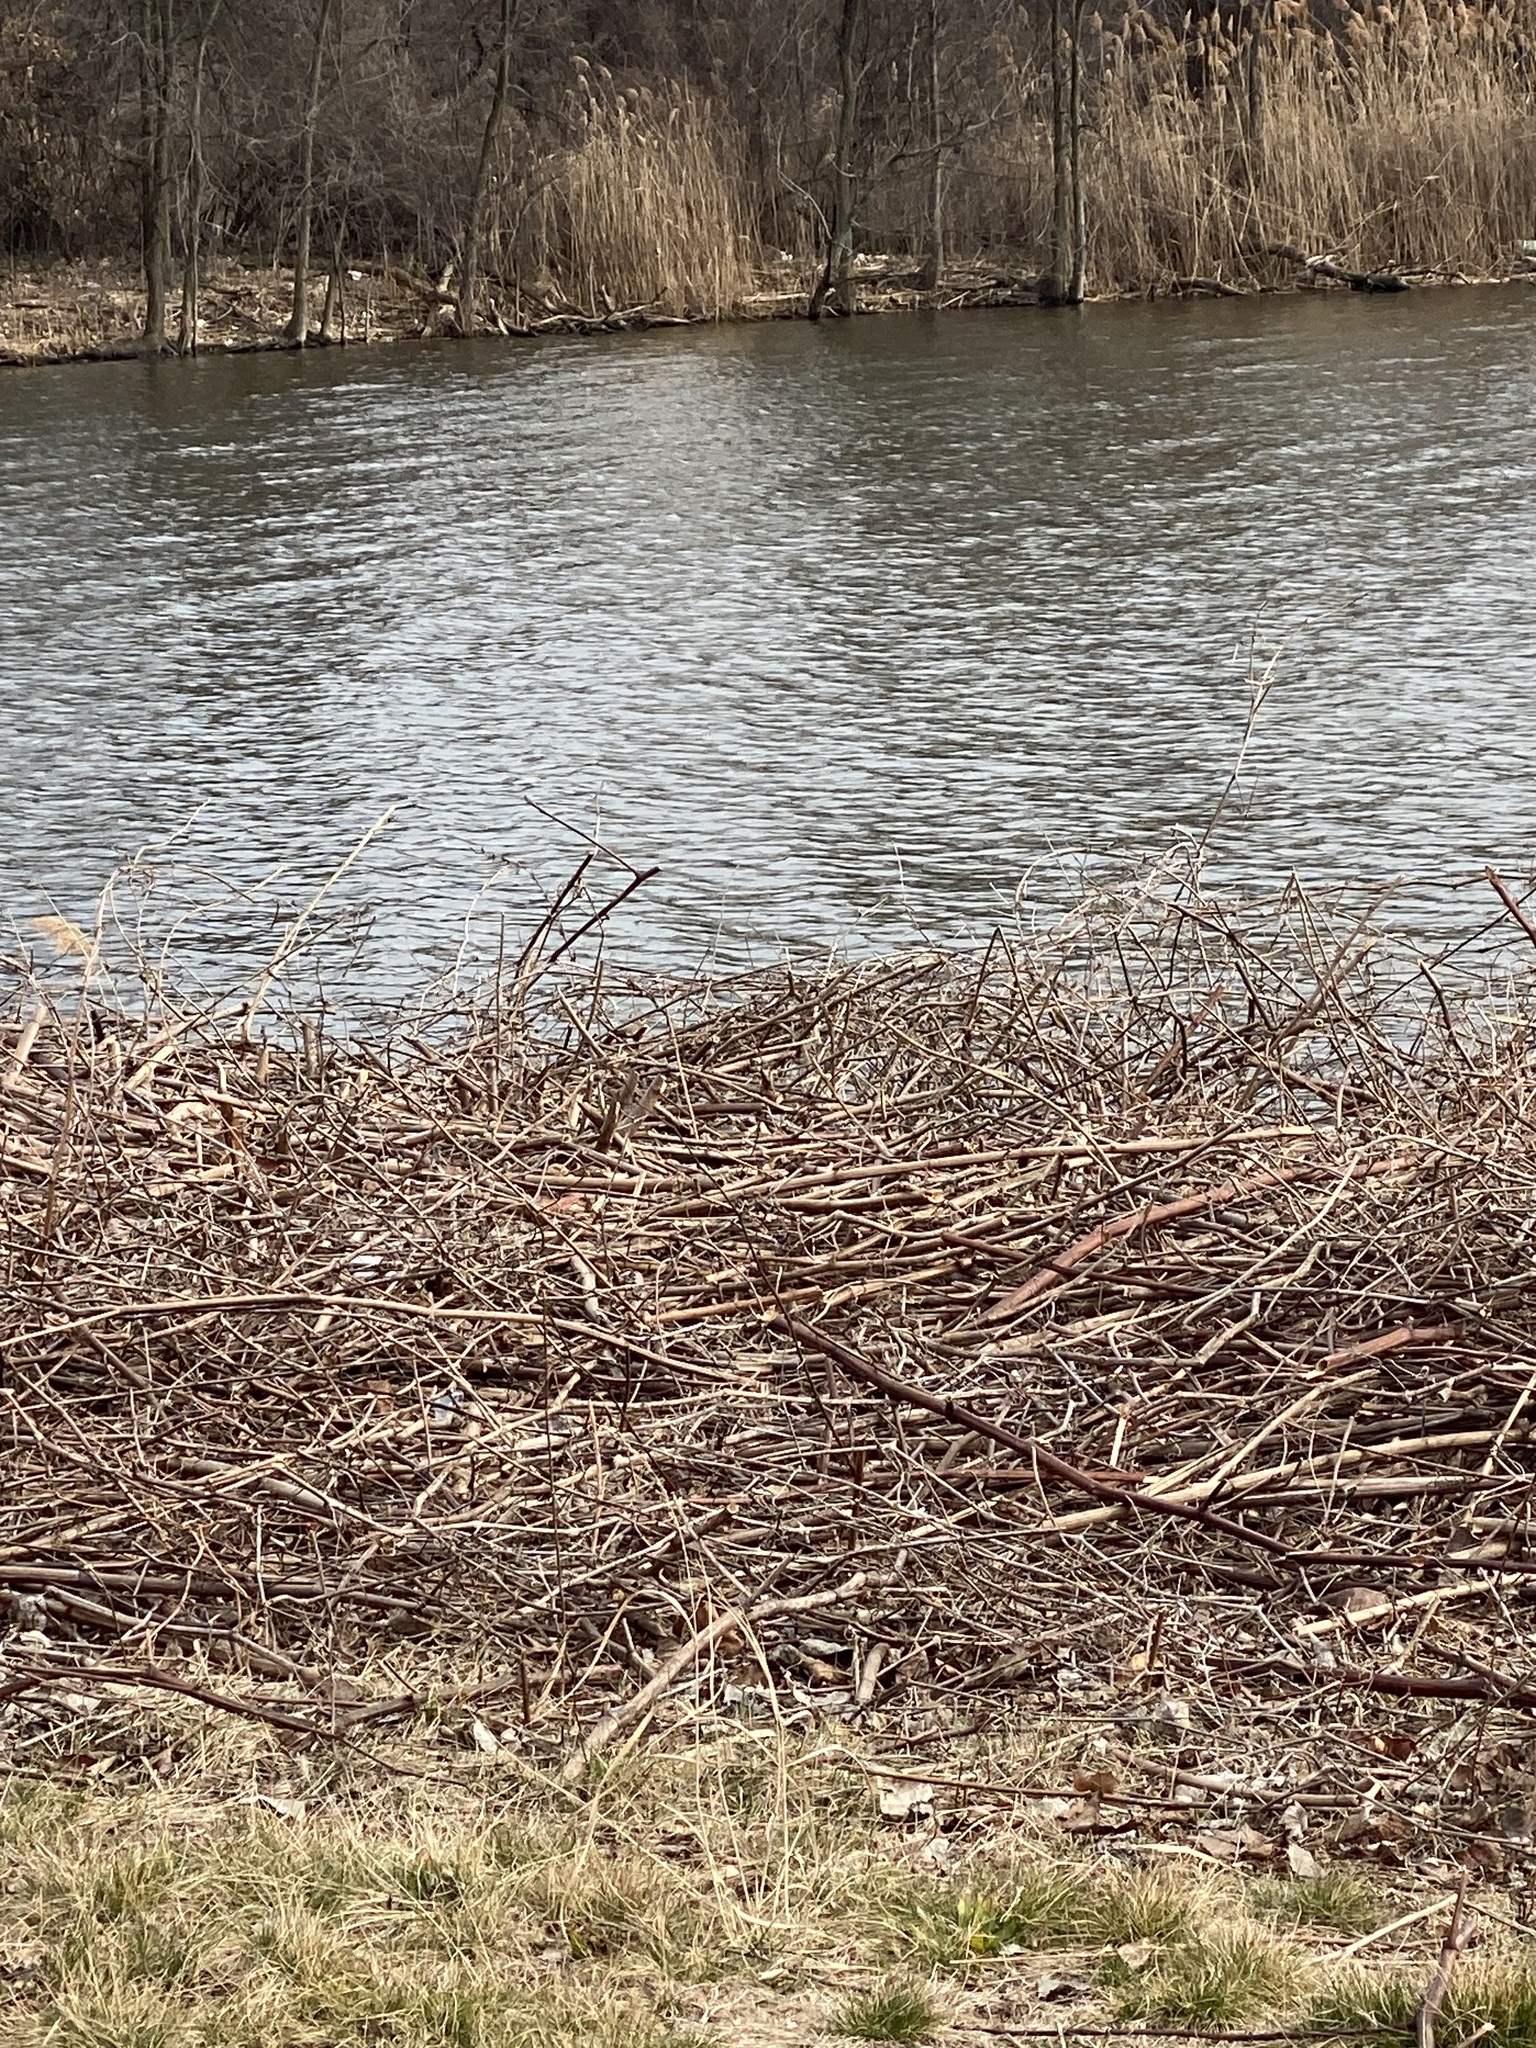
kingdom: Plantae
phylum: Tracheophyta
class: Magnoliopsida
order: Asterales
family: Asteraceae
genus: Solidago
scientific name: Solidago rigida
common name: Rigid goldenrod
